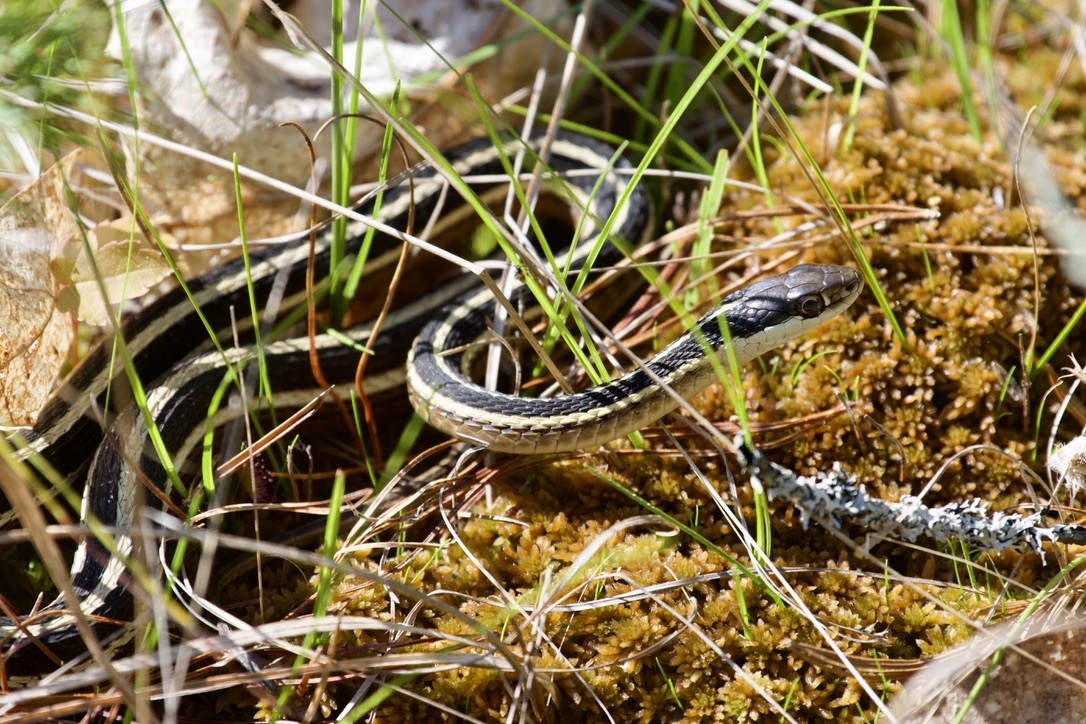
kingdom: Animalia
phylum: Chordata
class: Squamata
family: Colubridae
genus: Thamnophis
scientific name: Thamnophis saurita
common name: Eastern ribbonsnake
